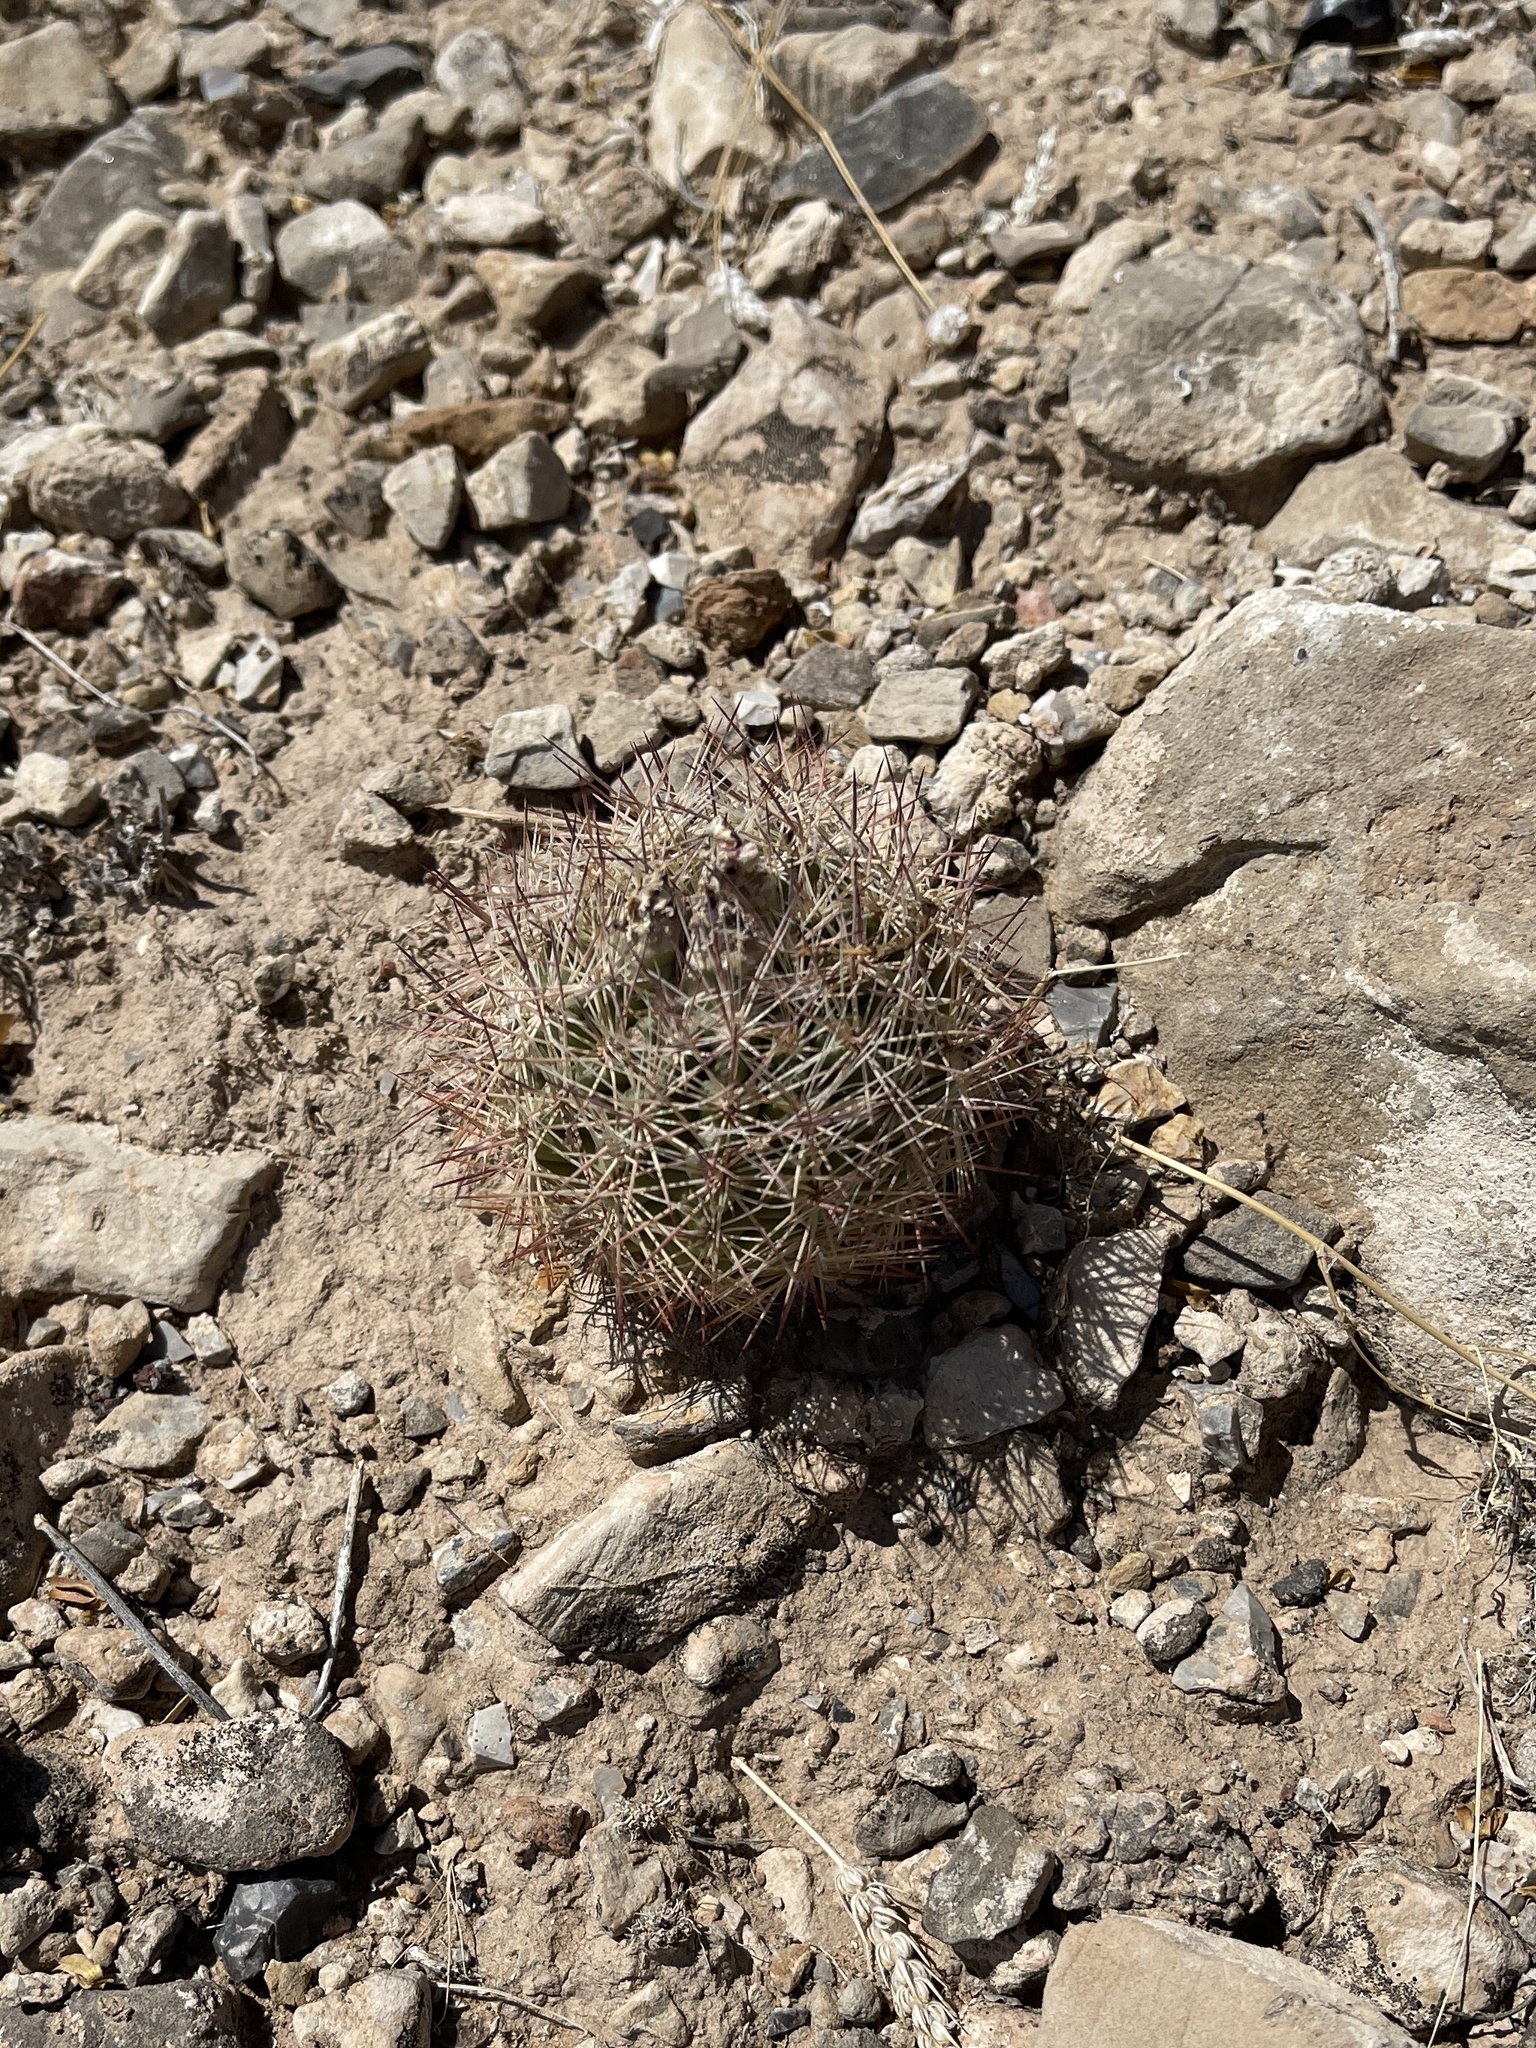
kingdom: Plantae
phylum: Tracheophyta
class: Magnoliopsida
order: Caryophyllales
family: Cactaceae
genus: Sclerocactus
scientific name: Sclerocactus intertextus
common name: White fish-hook cactus
